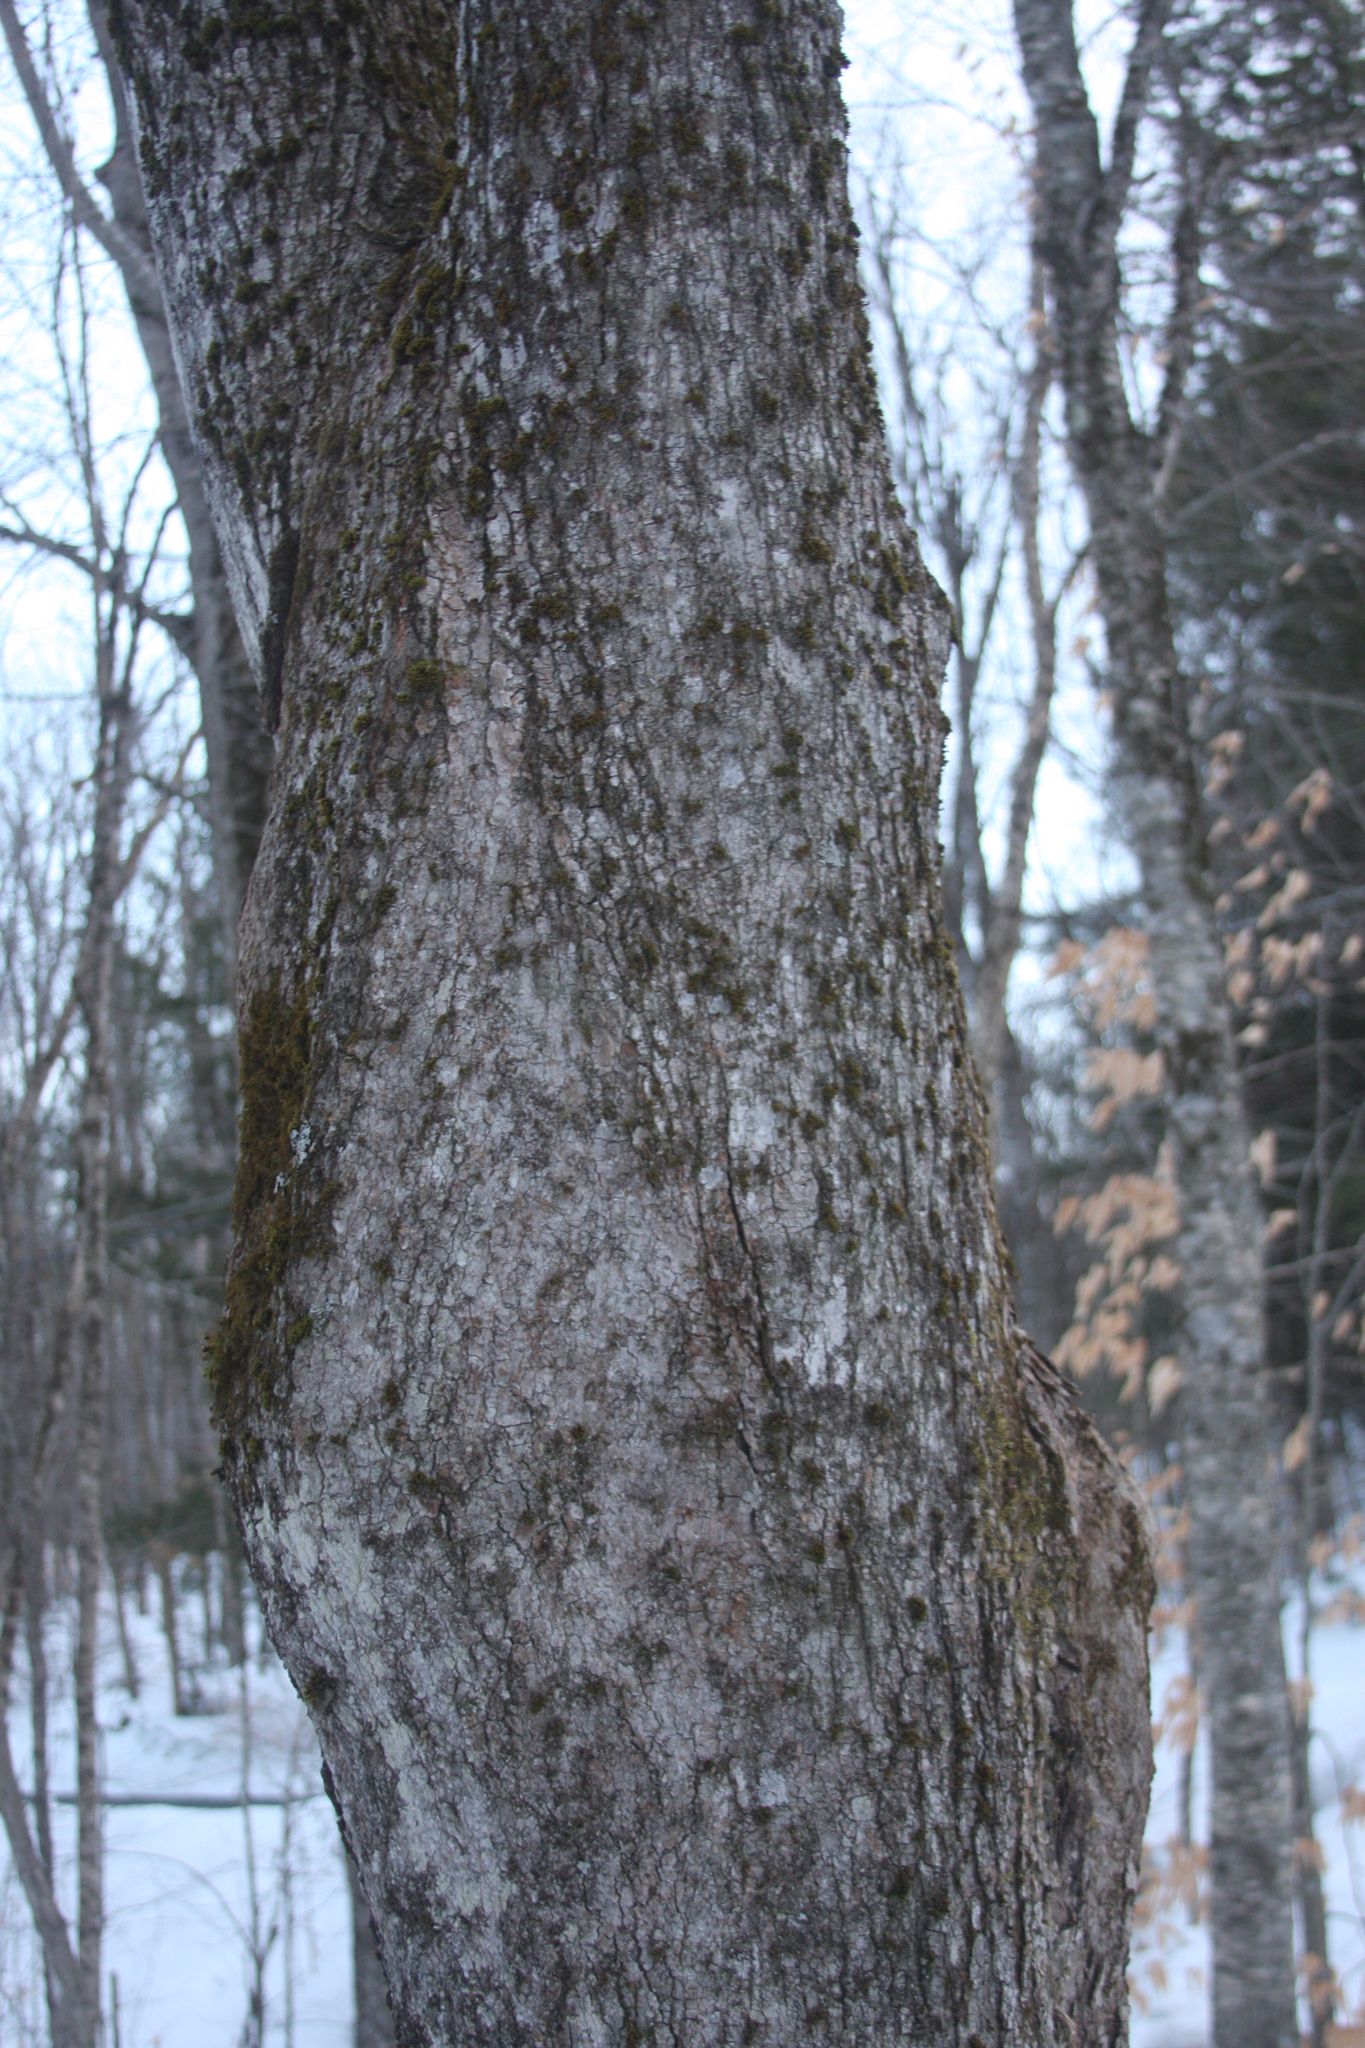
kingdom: Plantae
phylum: Bryophyta
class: Bryopsida
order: Orthotrichales
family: Orthotrichaceae
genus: Ulota
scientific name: Ulota crispa
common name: Crisped pincushion moss
